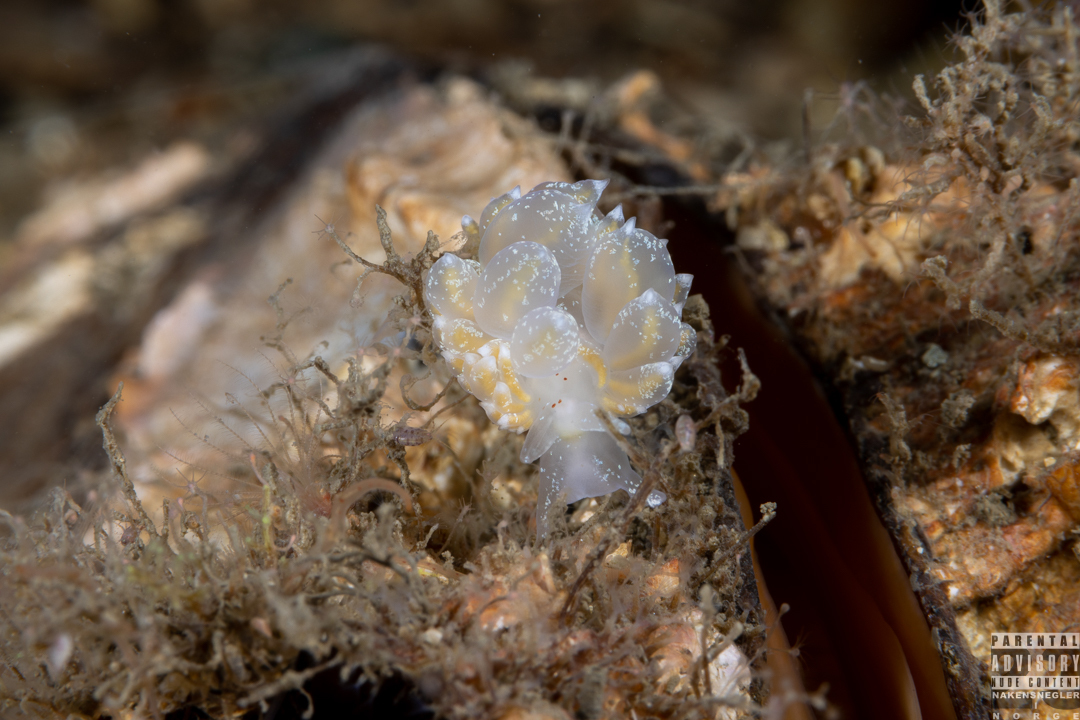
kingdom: Animalia
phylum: Mollusca
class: Gastropoda
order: Nudibranchia
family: Eubranchidae
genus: Amphorina
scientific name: Amphorina pallida
